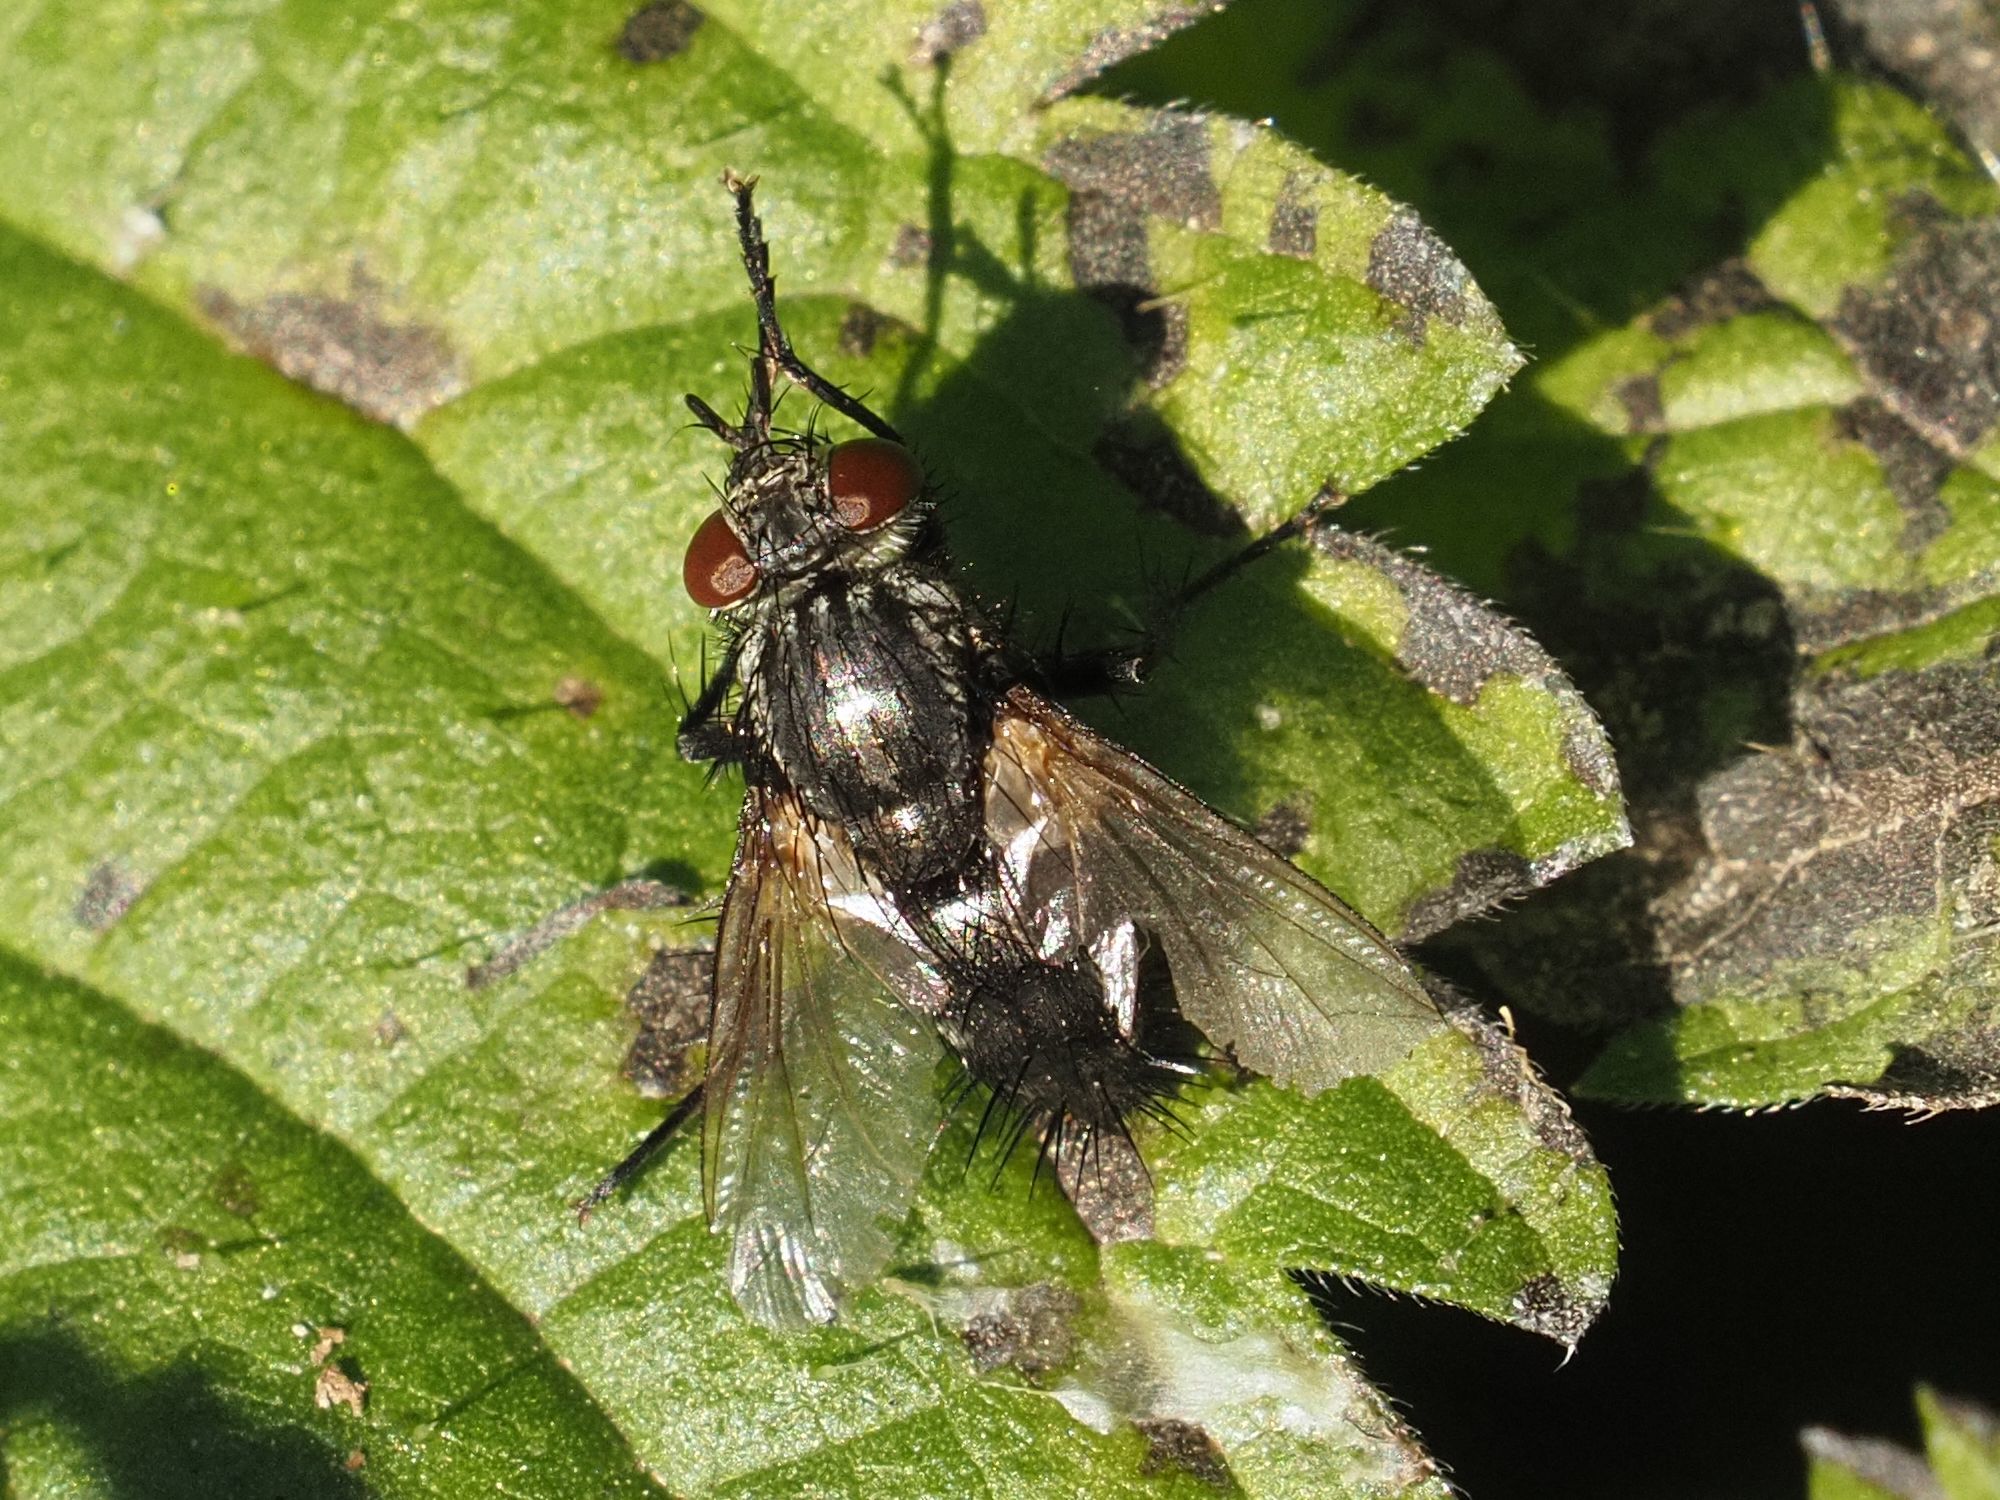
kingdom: Animalia
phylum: Arthropoda
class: Insecta
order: Diptera
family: Tachinidae
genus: Voria
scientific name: Voria ruralis
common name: Parasitic fly
